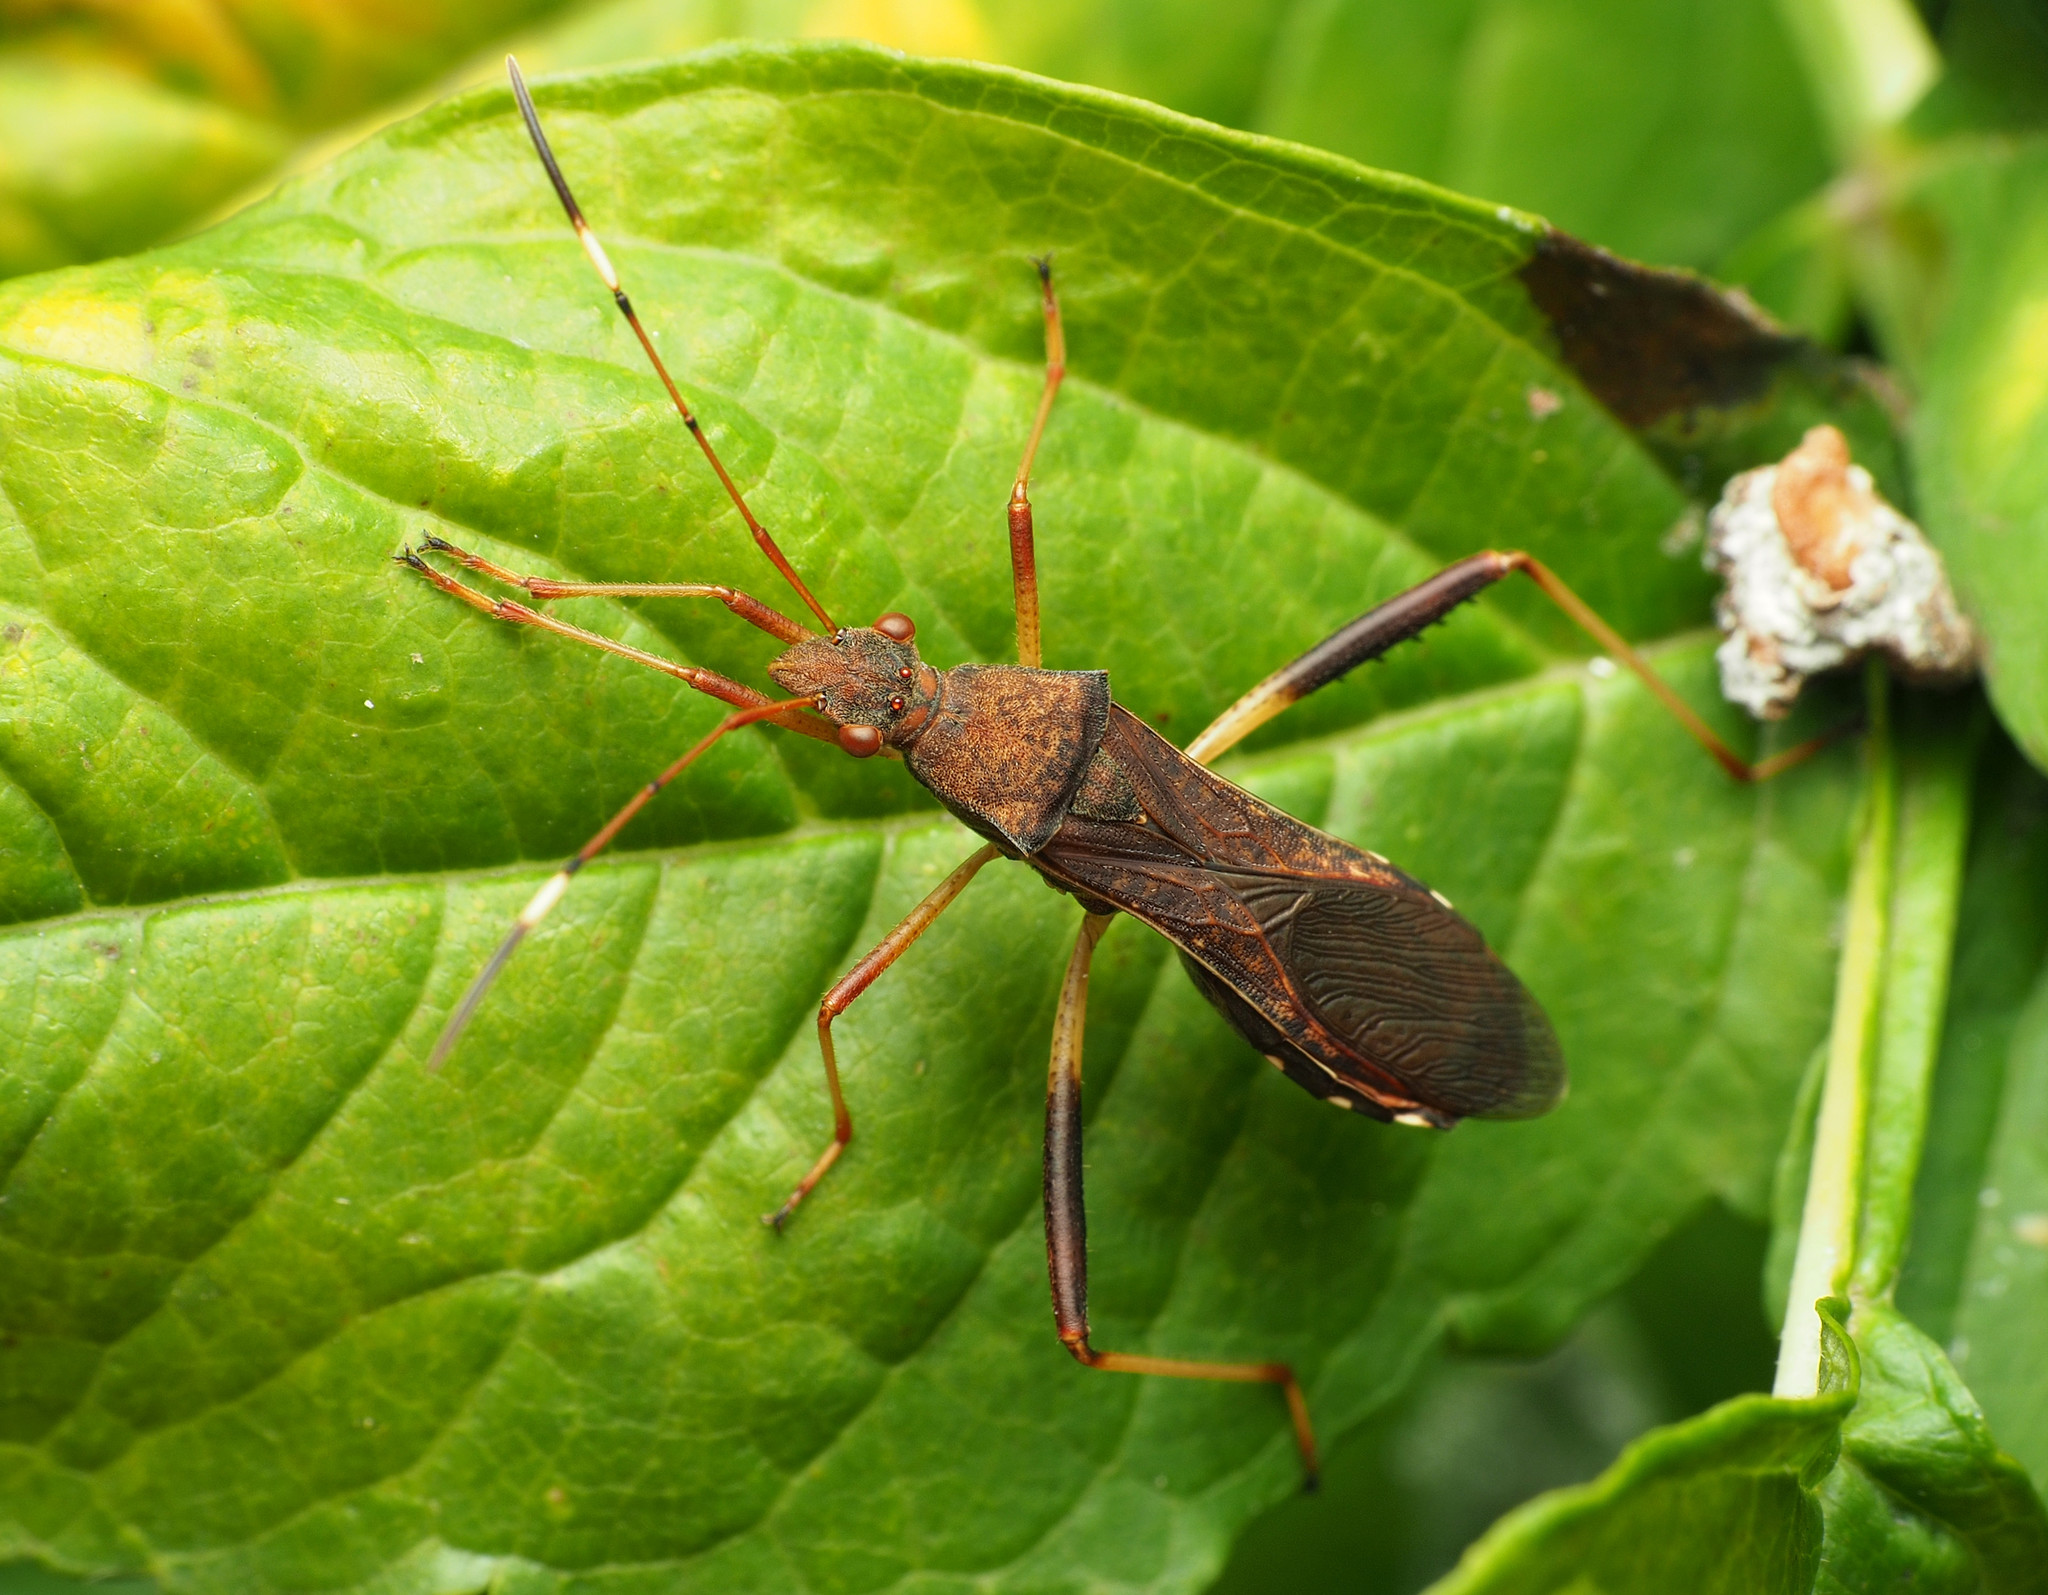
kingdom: Animalia
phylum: Arthropoda
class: Insecta
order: Hemiptera
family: Alydidae
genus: Megalotomus
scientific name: Megalotomus quinquespinosus
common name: Lupine bug
